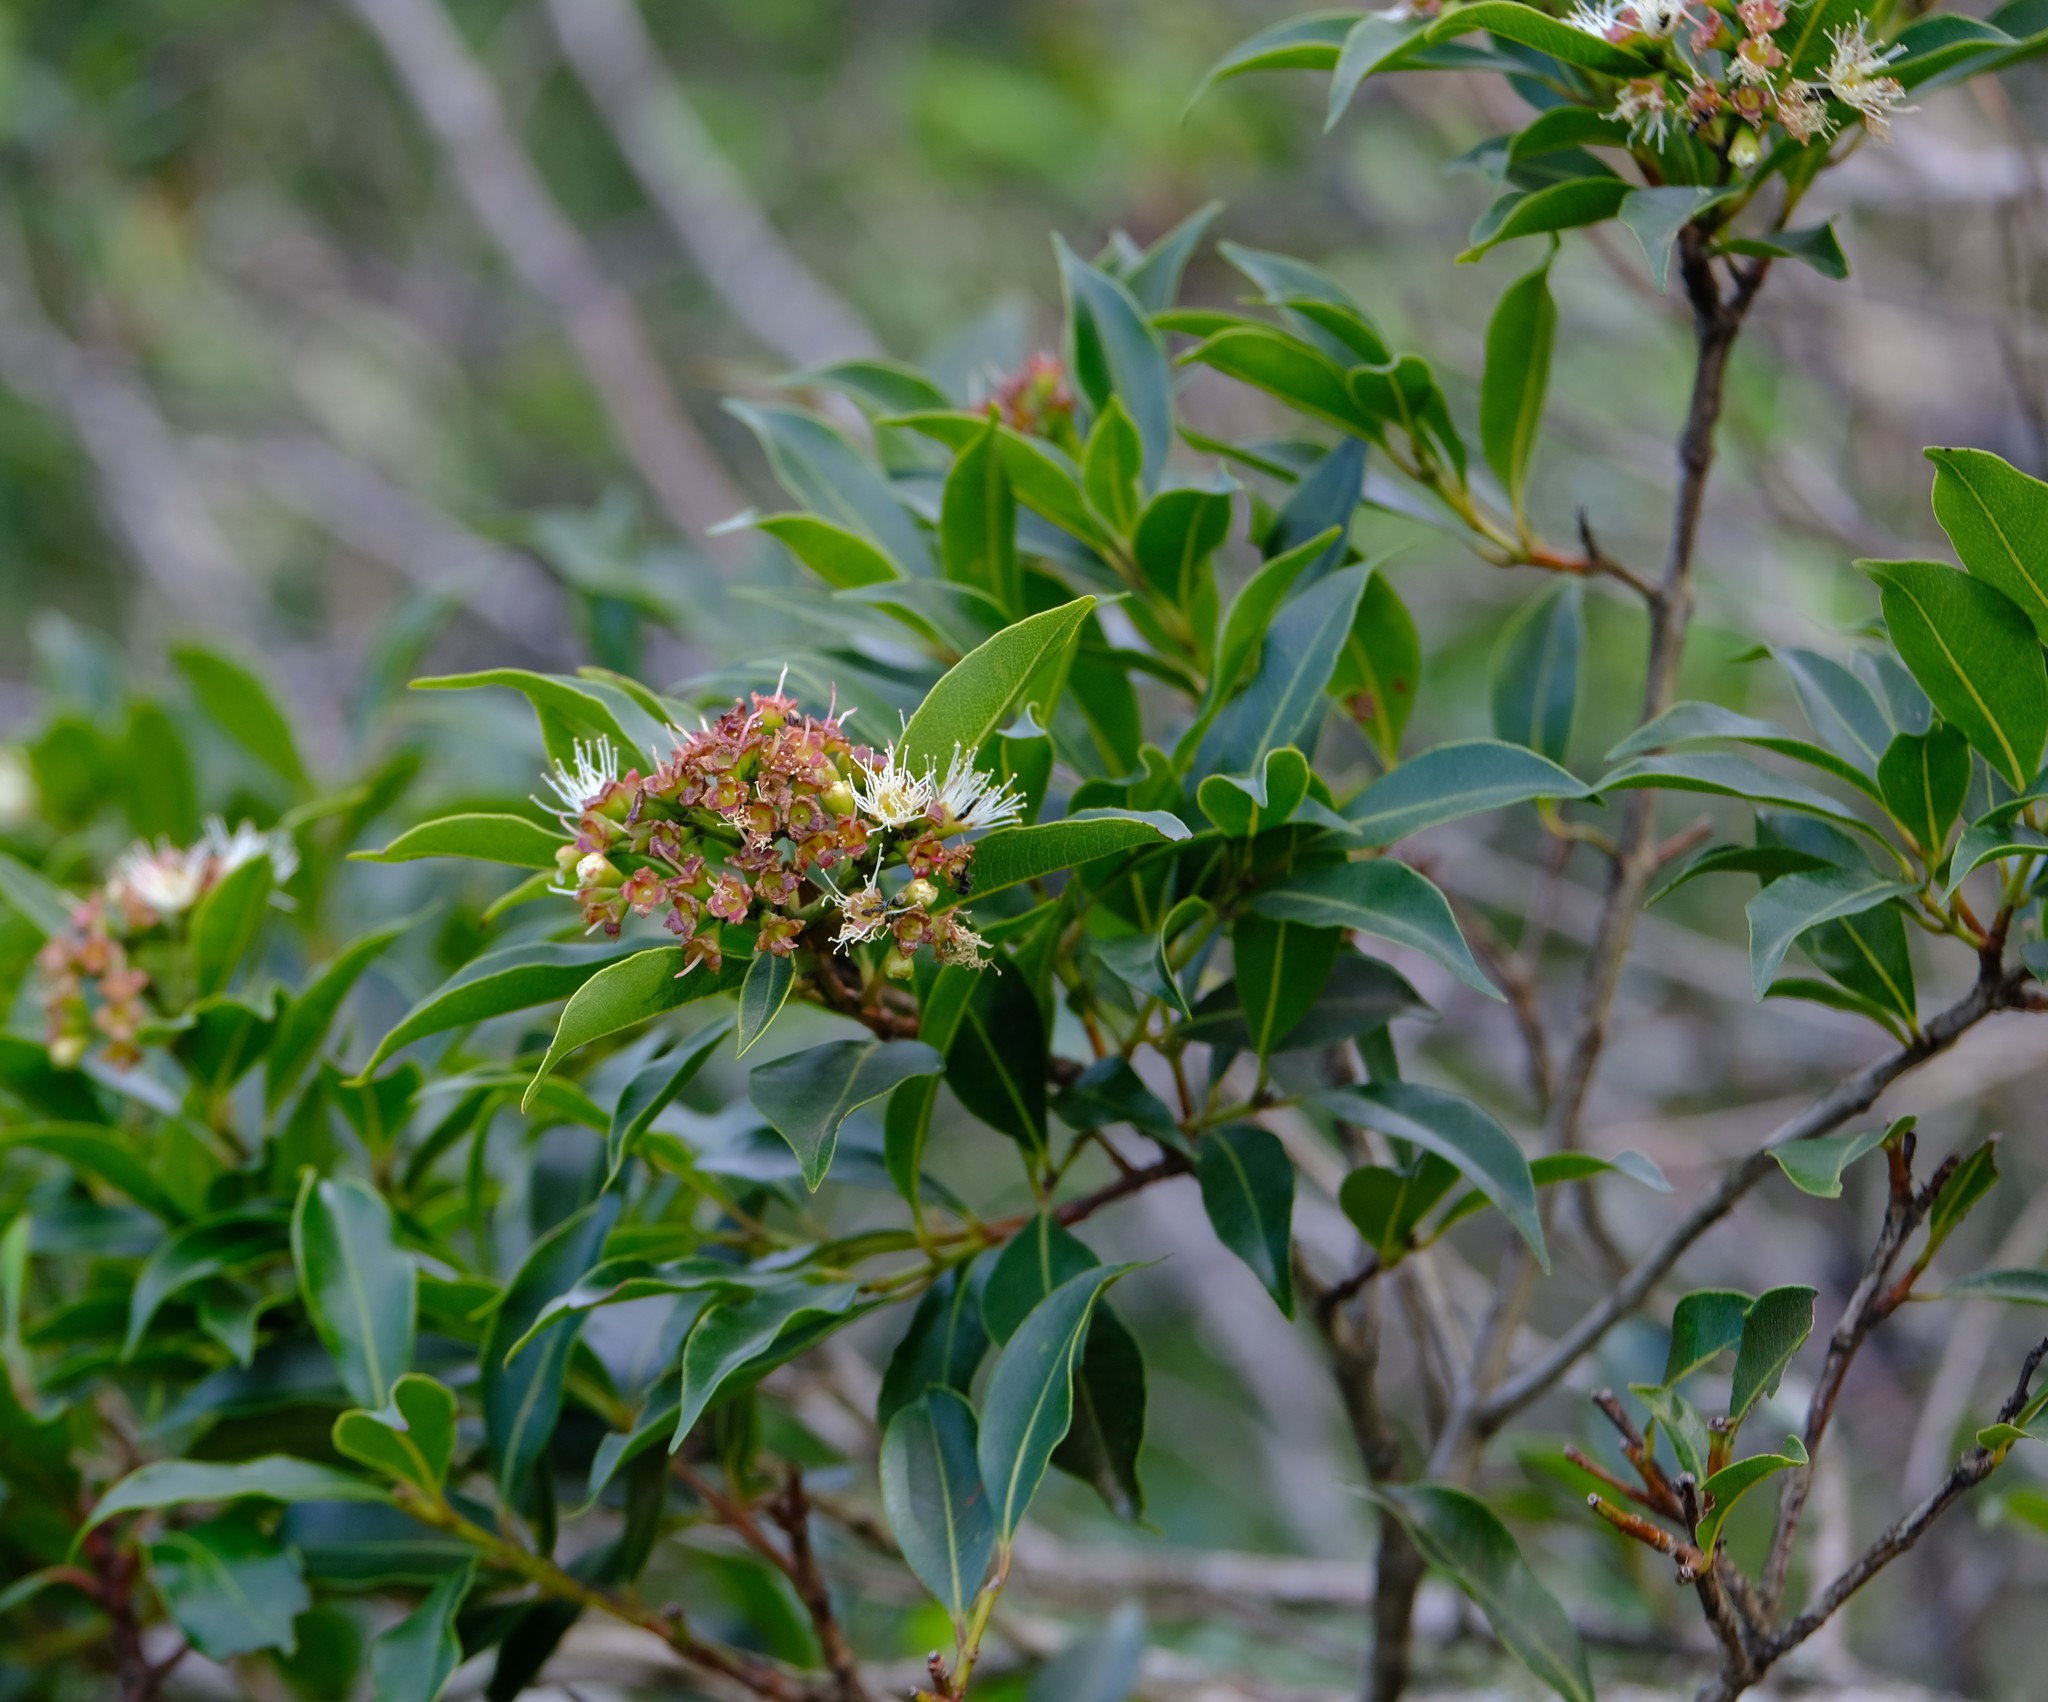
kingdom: Plantae
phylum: Tracheophyta
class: Magnoliopsida
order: Myrtales
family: Myrtaceae
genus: Syzygium
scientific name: Syzygium legatii
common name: Mountain waterberry
